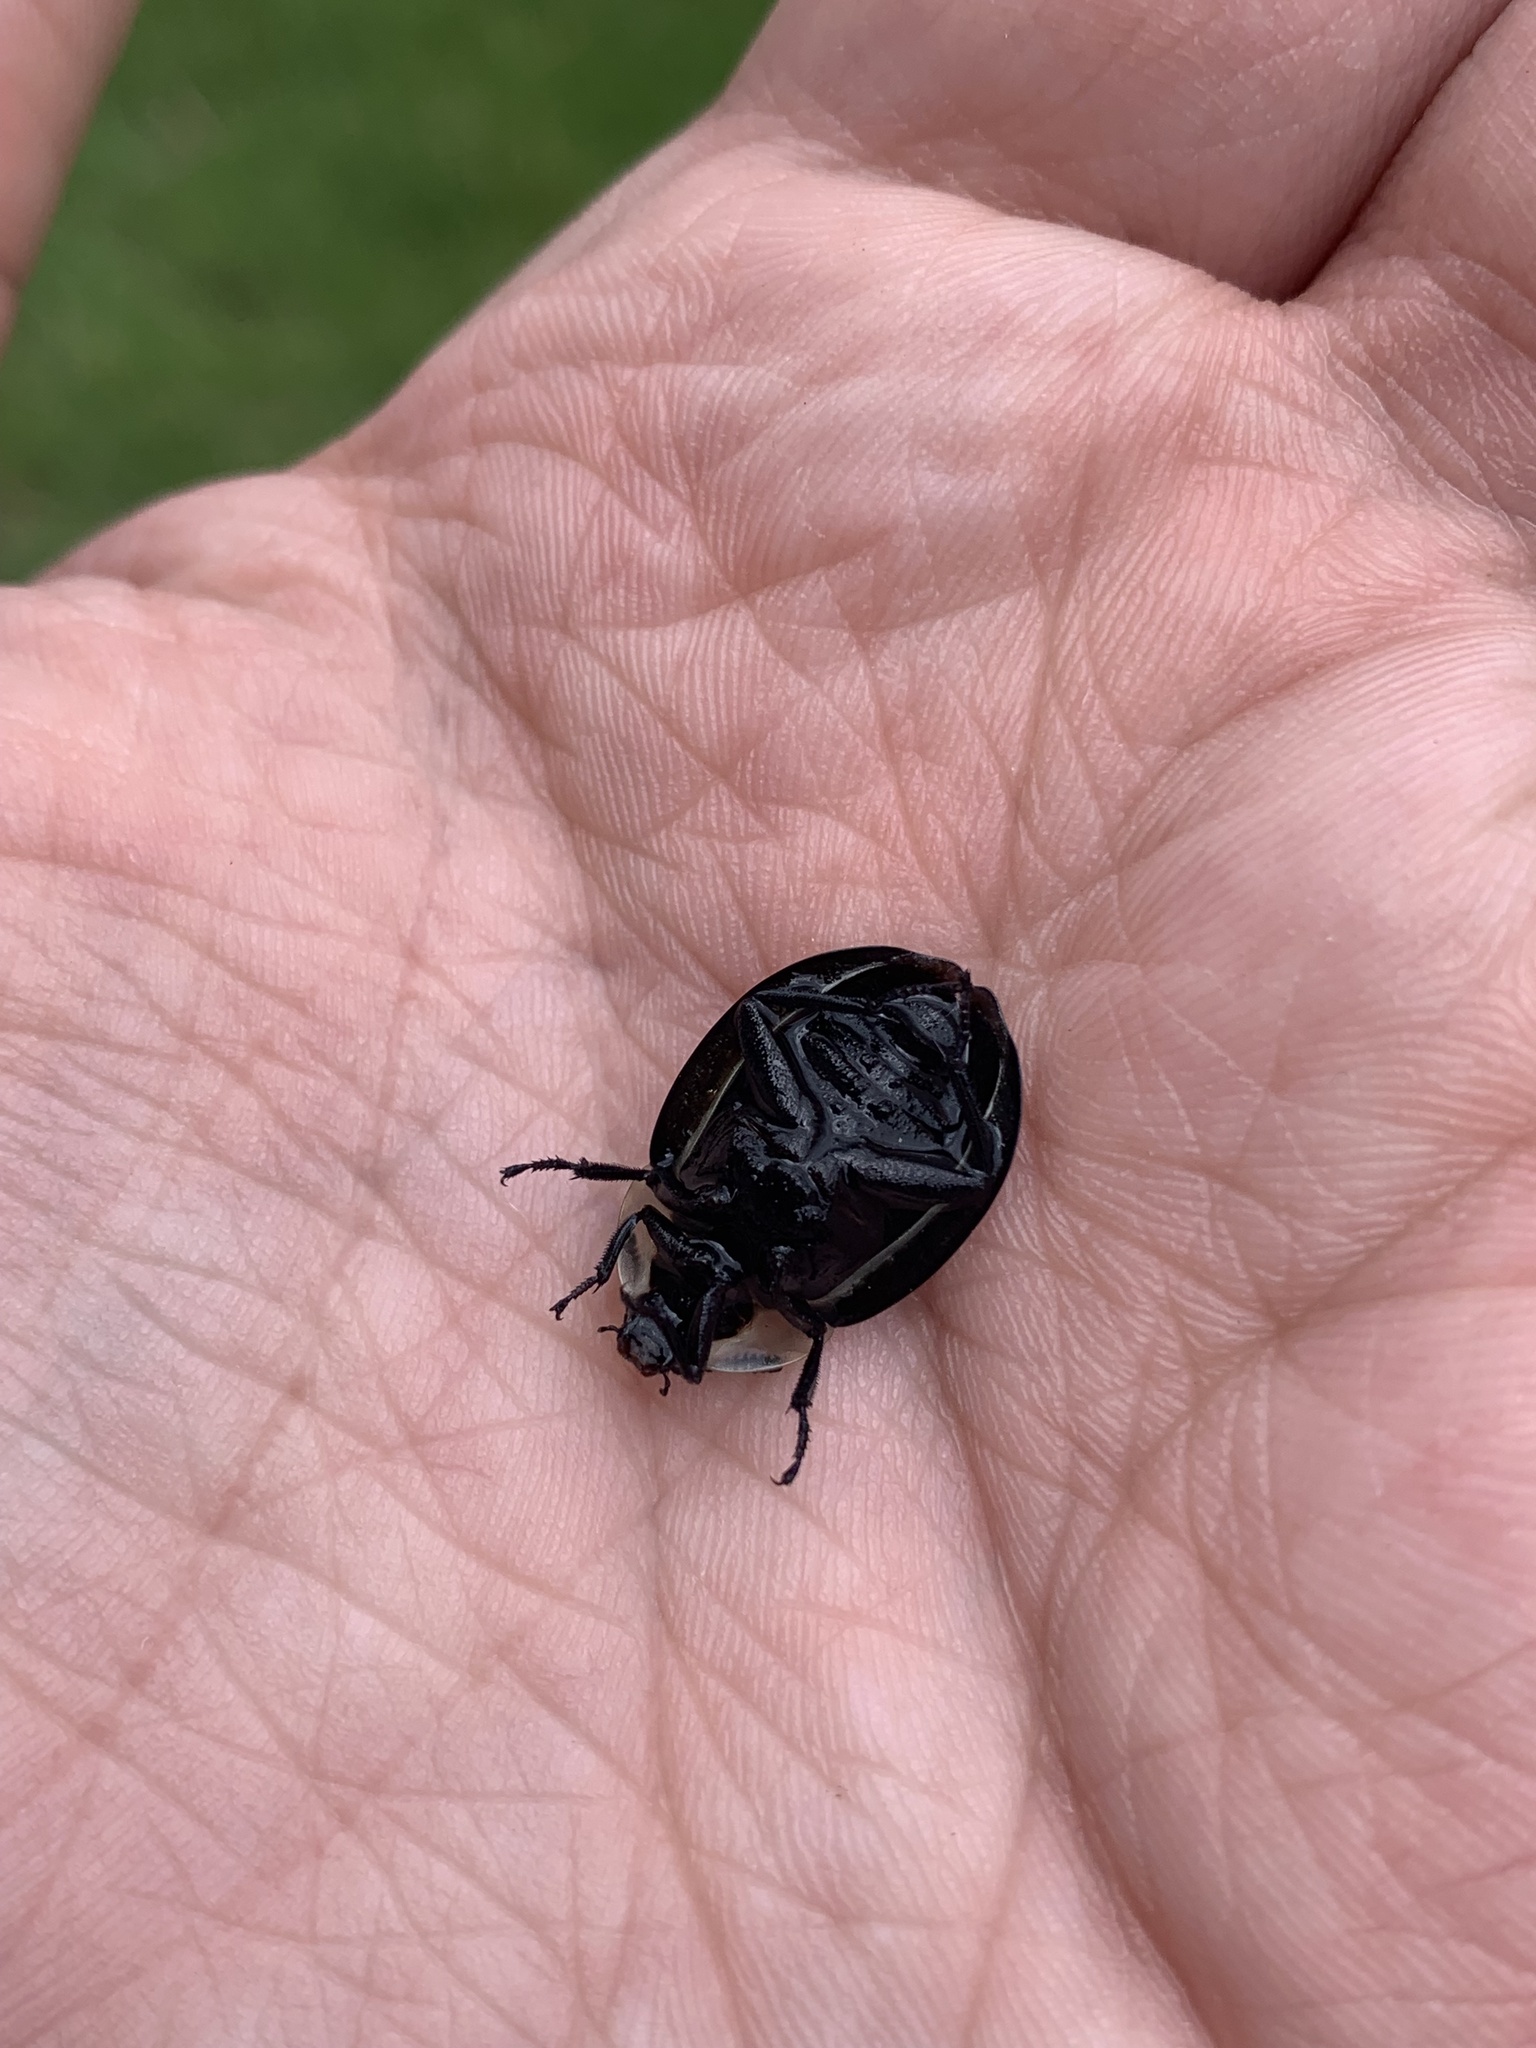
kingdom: Animalia
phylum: Arthropoda
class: Insecta
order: Coleoptera
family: Staphylinidae
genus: Necrophila
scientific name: Necrophila americana
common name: American carrion beetle
